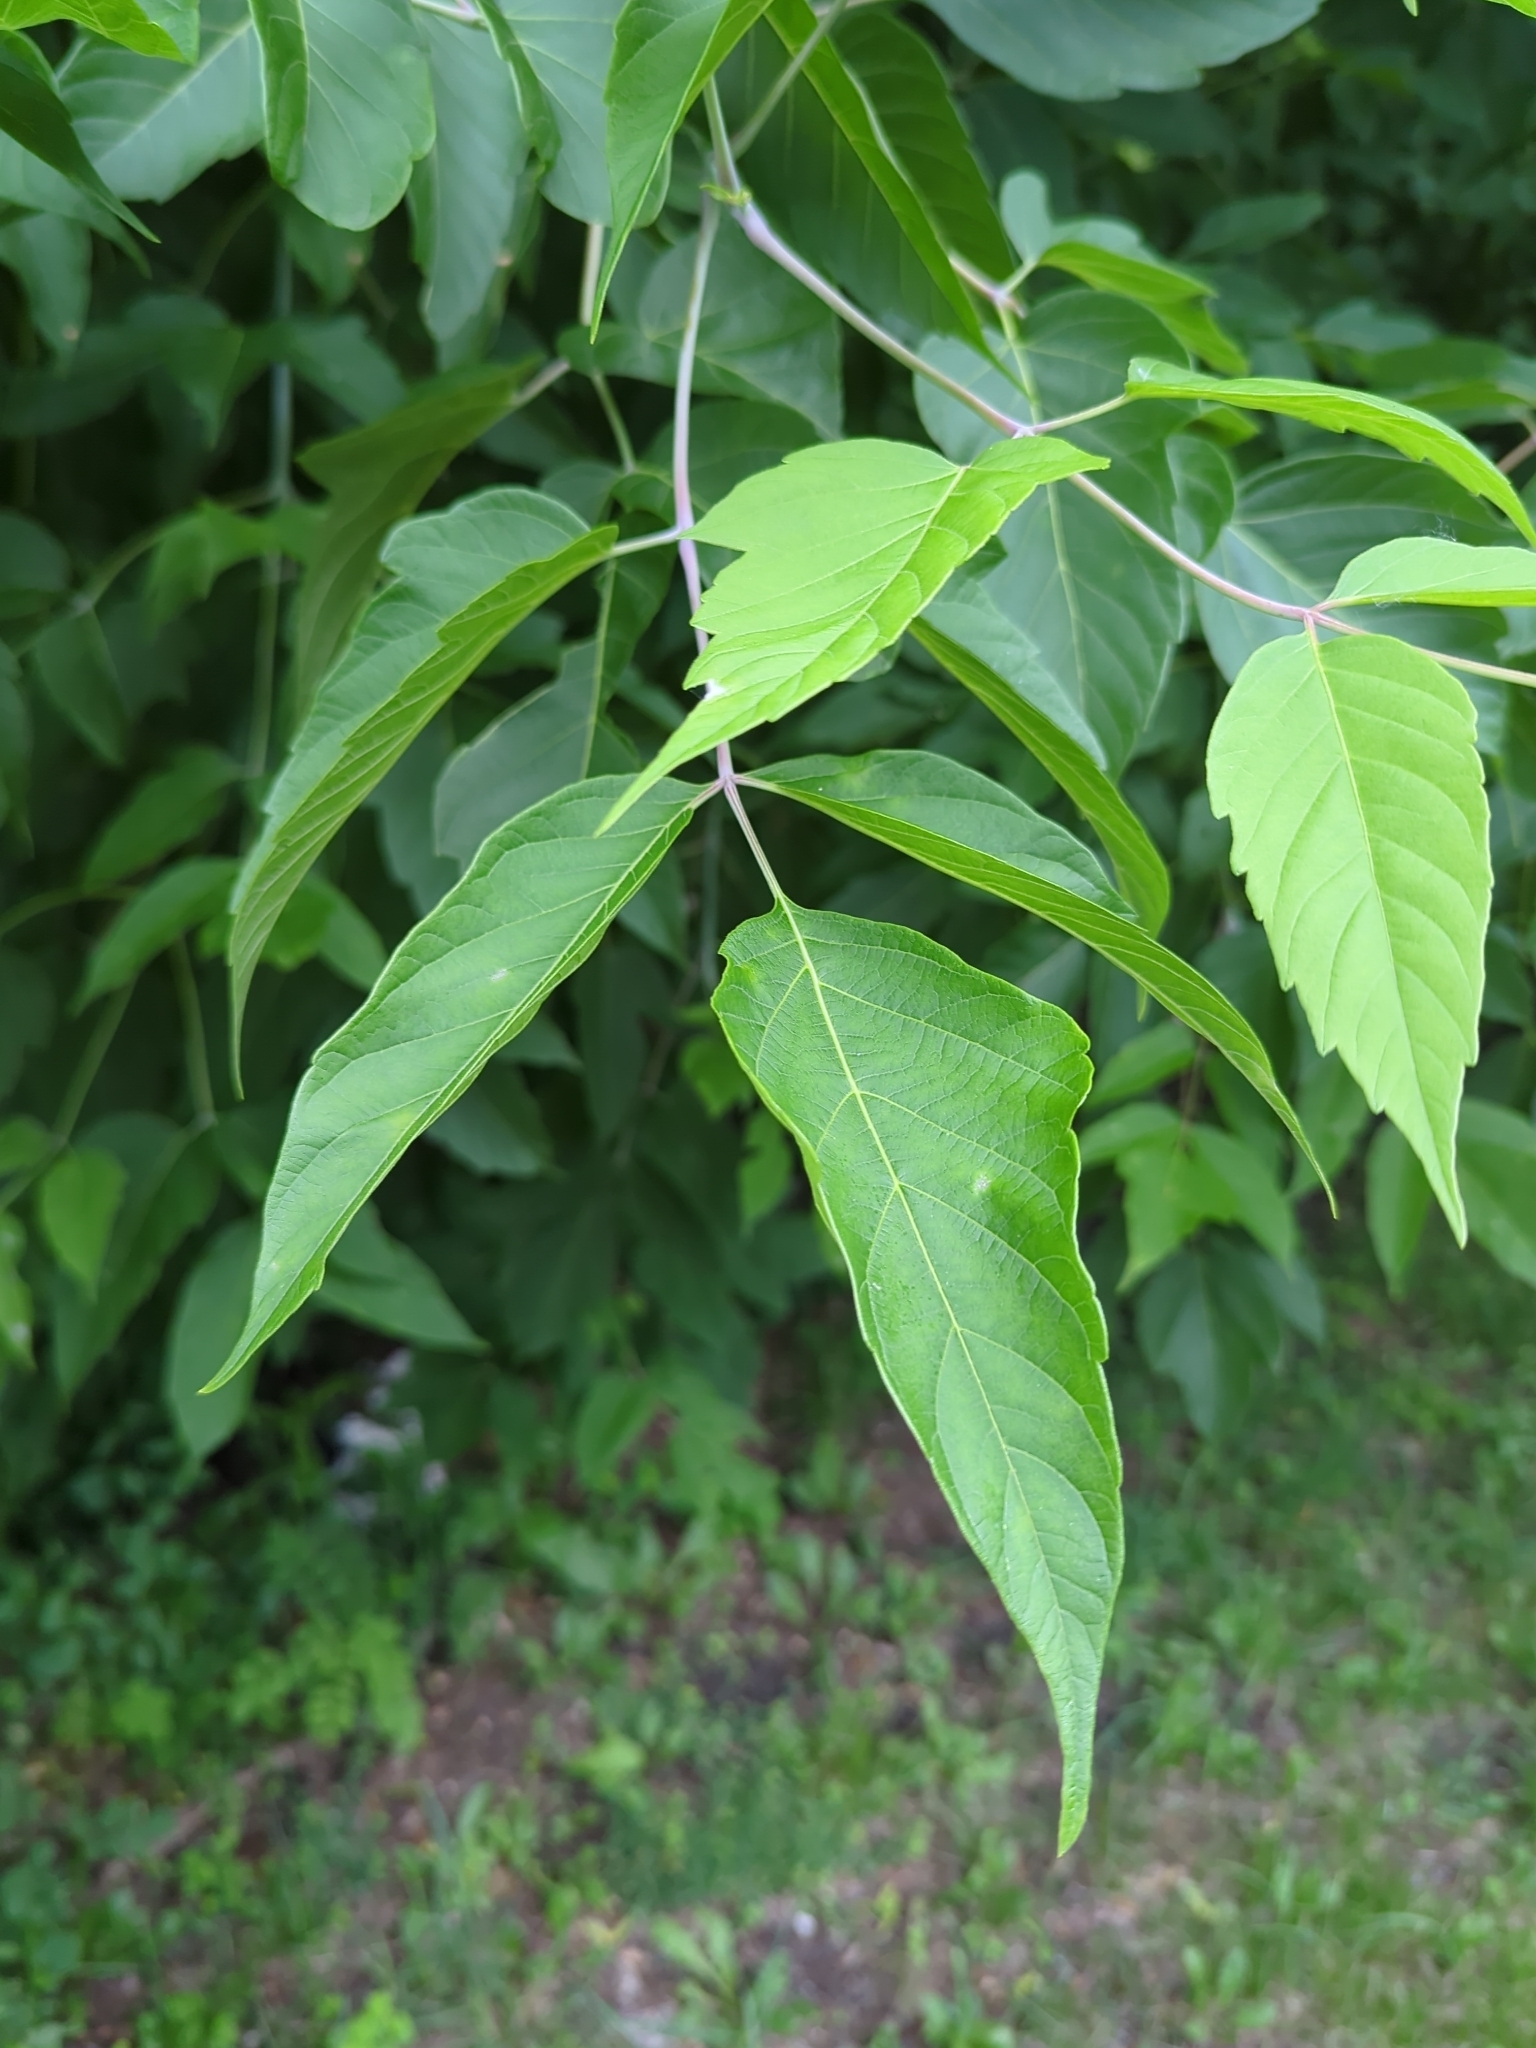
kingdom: Plantae
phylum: Tracheophyta
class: Magnoliopsida
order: Sapindales
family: Sapindaceae
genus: Acer
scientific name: Acer negundo
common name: Ashleaf maple
